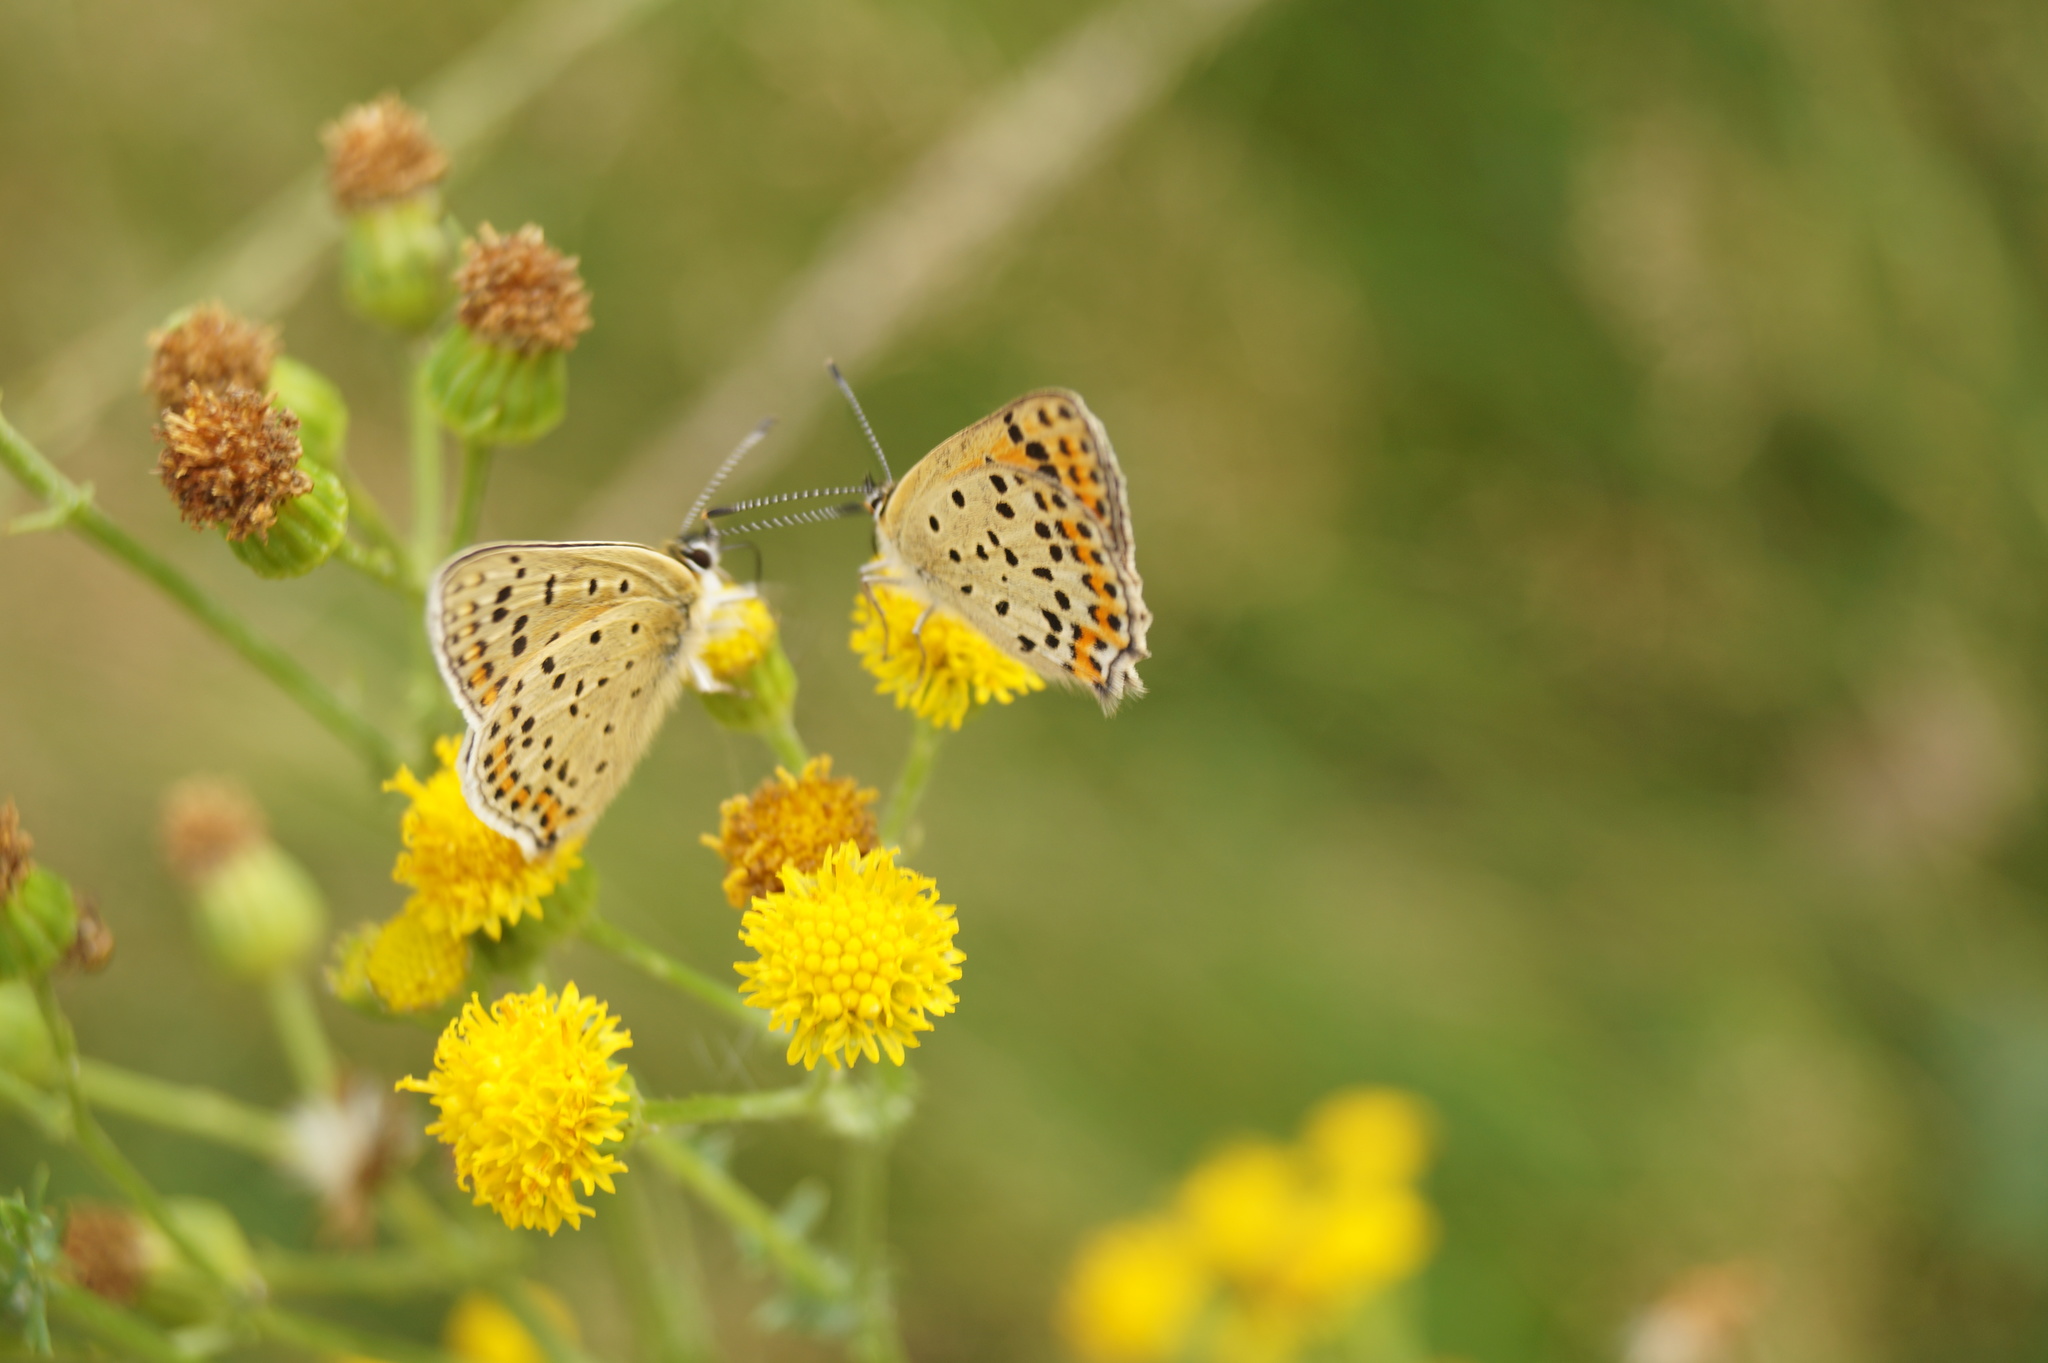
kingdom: Animalia
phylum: Arthropoda
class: Insecta
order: Lepidoptera
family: Lycaenidae
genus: Loweia
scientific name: Loweia tityrus
